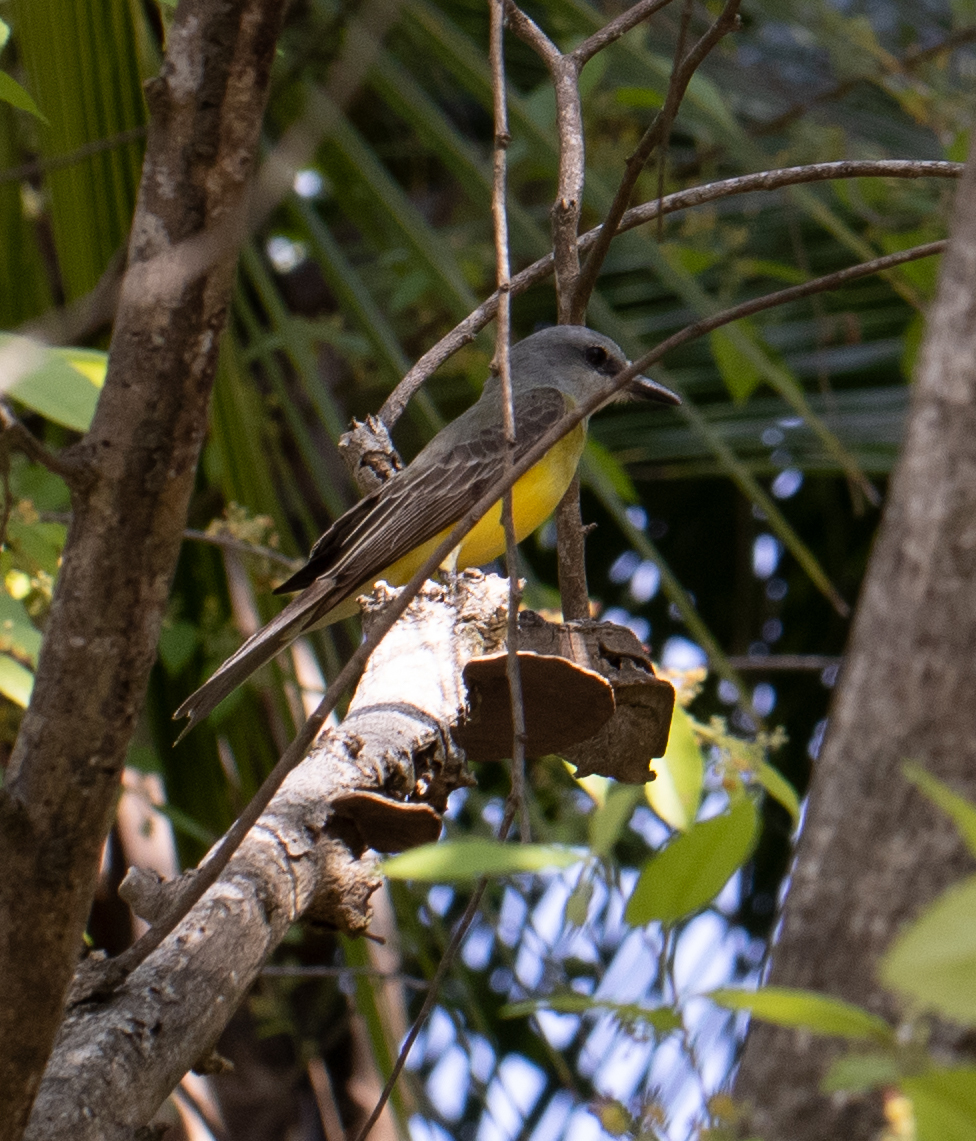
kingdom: Animalia
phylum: Chordata
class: Aves
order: Passeriformes
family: Tyrannidae
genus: Tyrannus
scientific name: Tyrannus melancholicus
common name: Tropical kingbird
